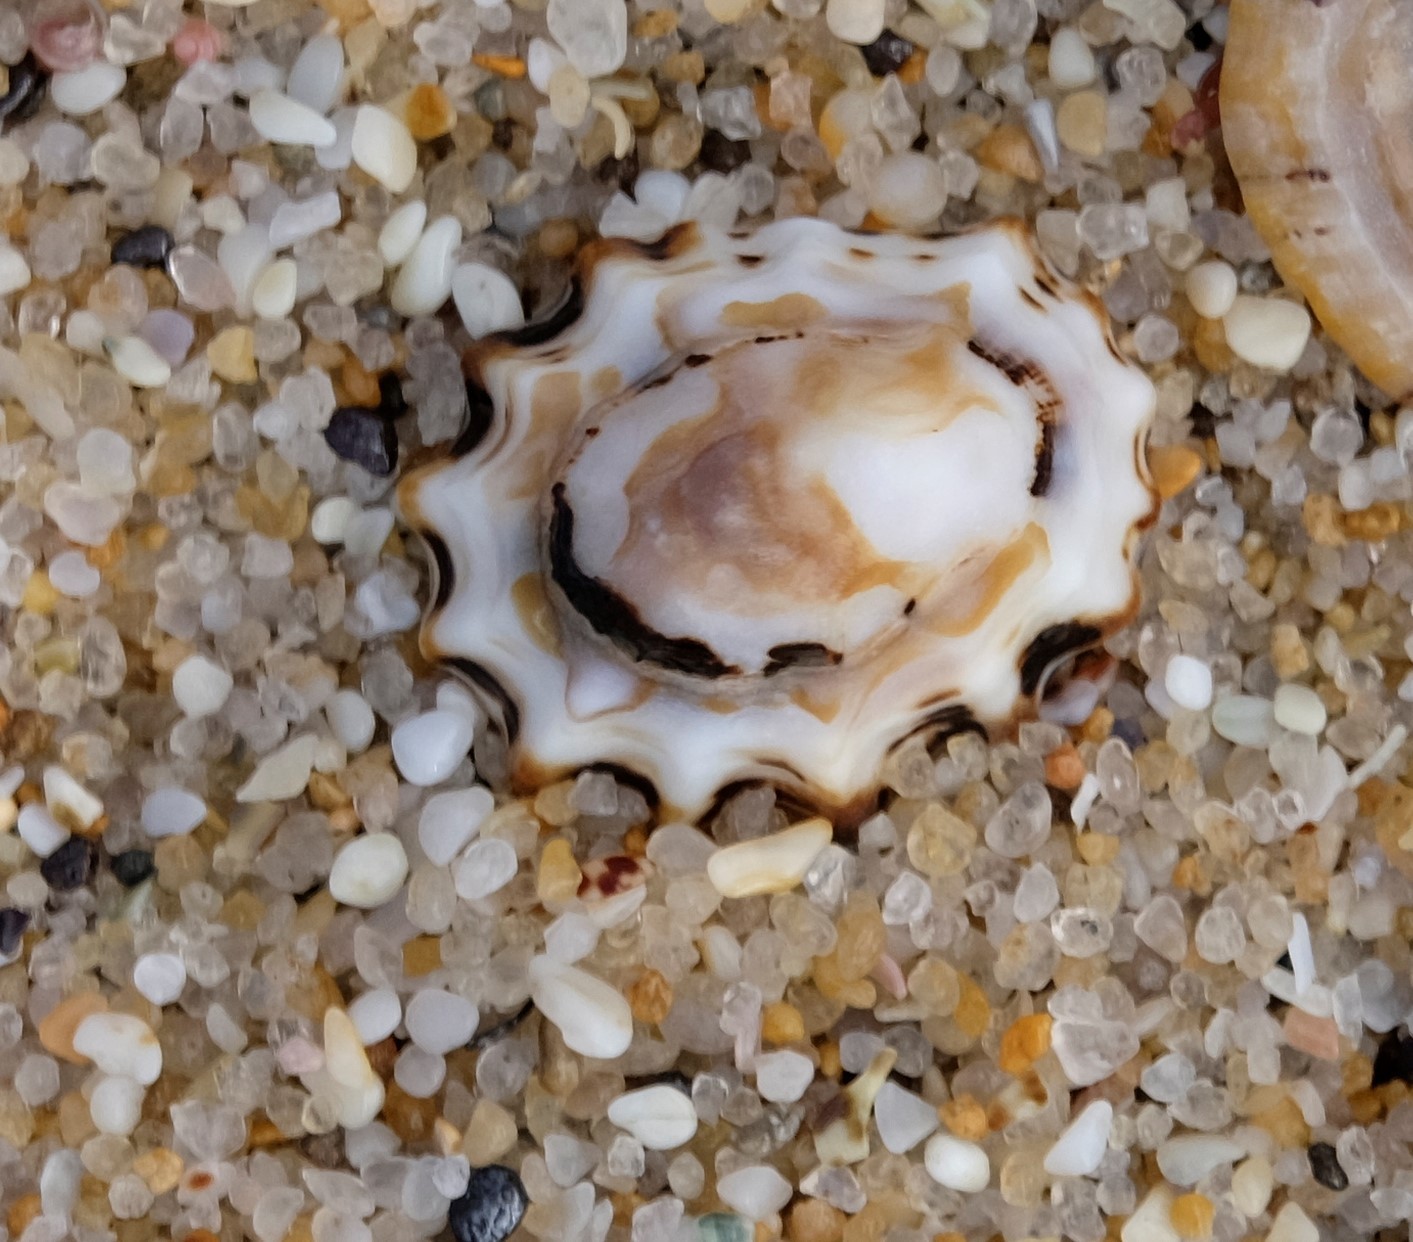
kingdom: Animalia
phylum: Mollusca
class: Gastropoda
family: Lottiidae
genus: Patelloida
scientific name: Patelloida alticostata
